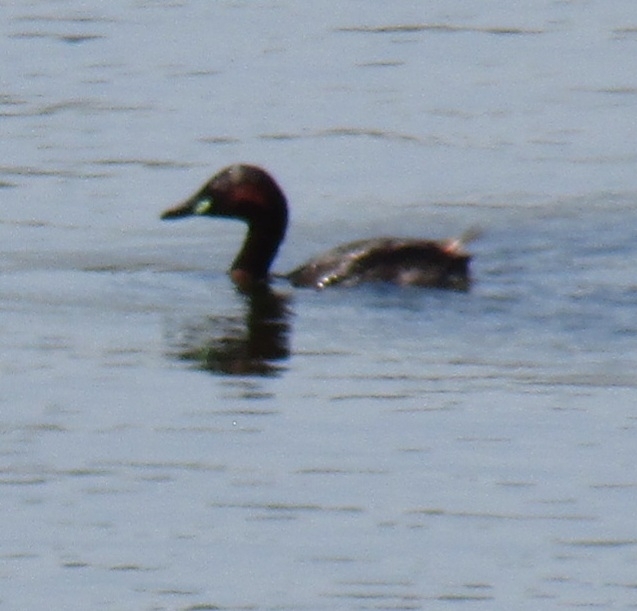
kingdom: Animalia
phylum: Chordata
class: Aves
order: Podicipediformes
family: Podicipedidae
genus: Tachybaptus
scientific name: Tachybaptus ruficollis
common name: Little grebe
